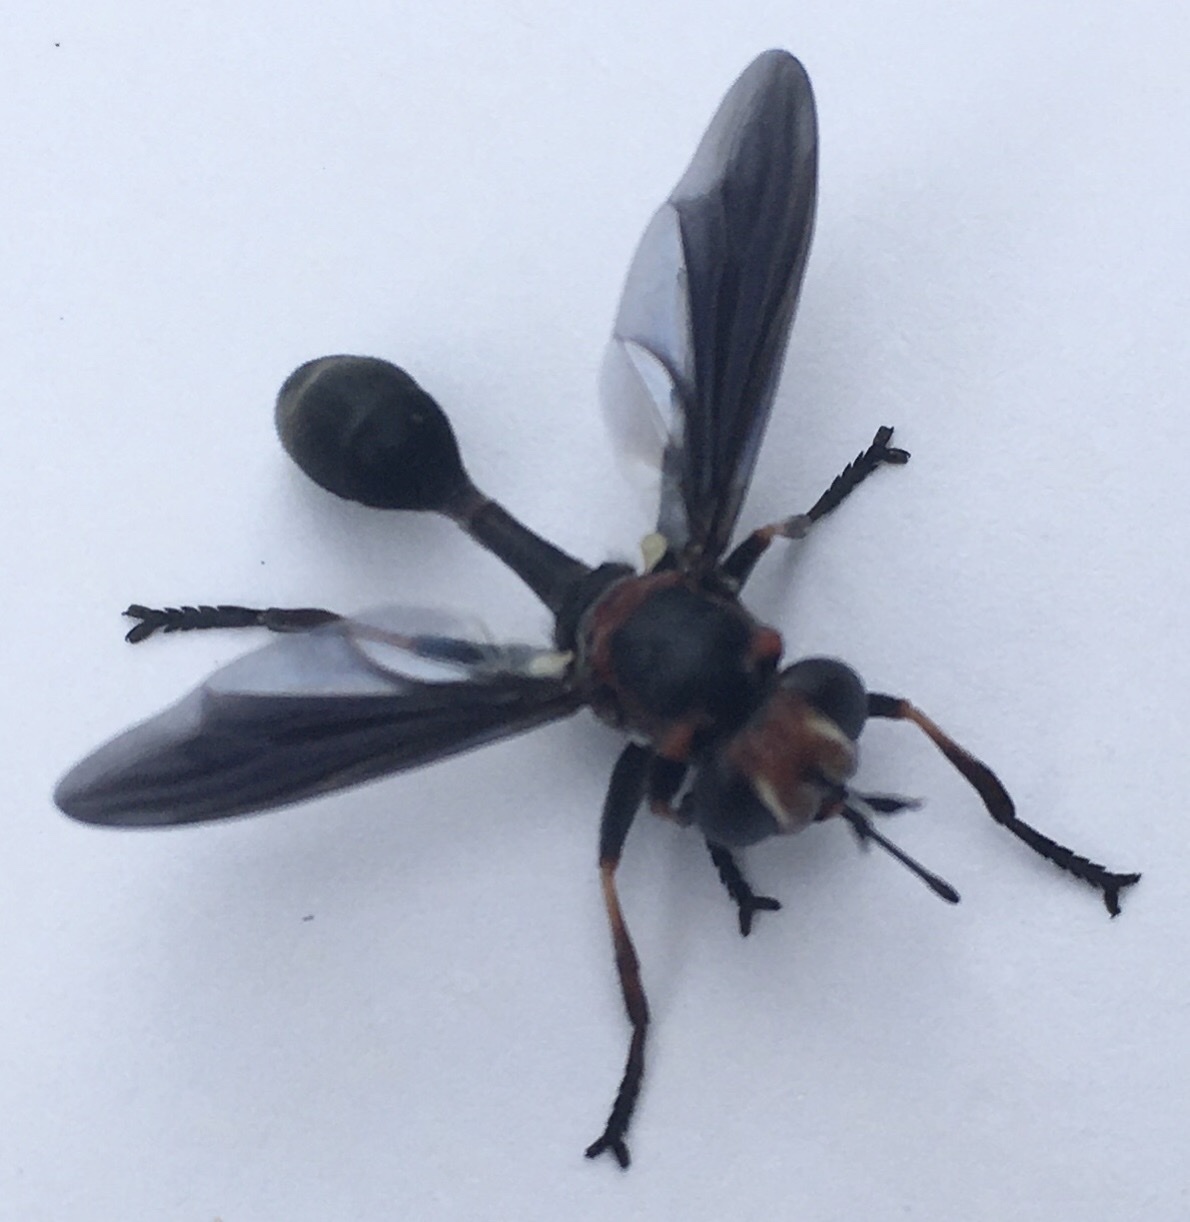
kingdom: Animalia
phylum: Arthropoda
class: Insecta
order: Diptera
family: Conopidae
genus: Physocephala
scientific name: Physocephala floridana
